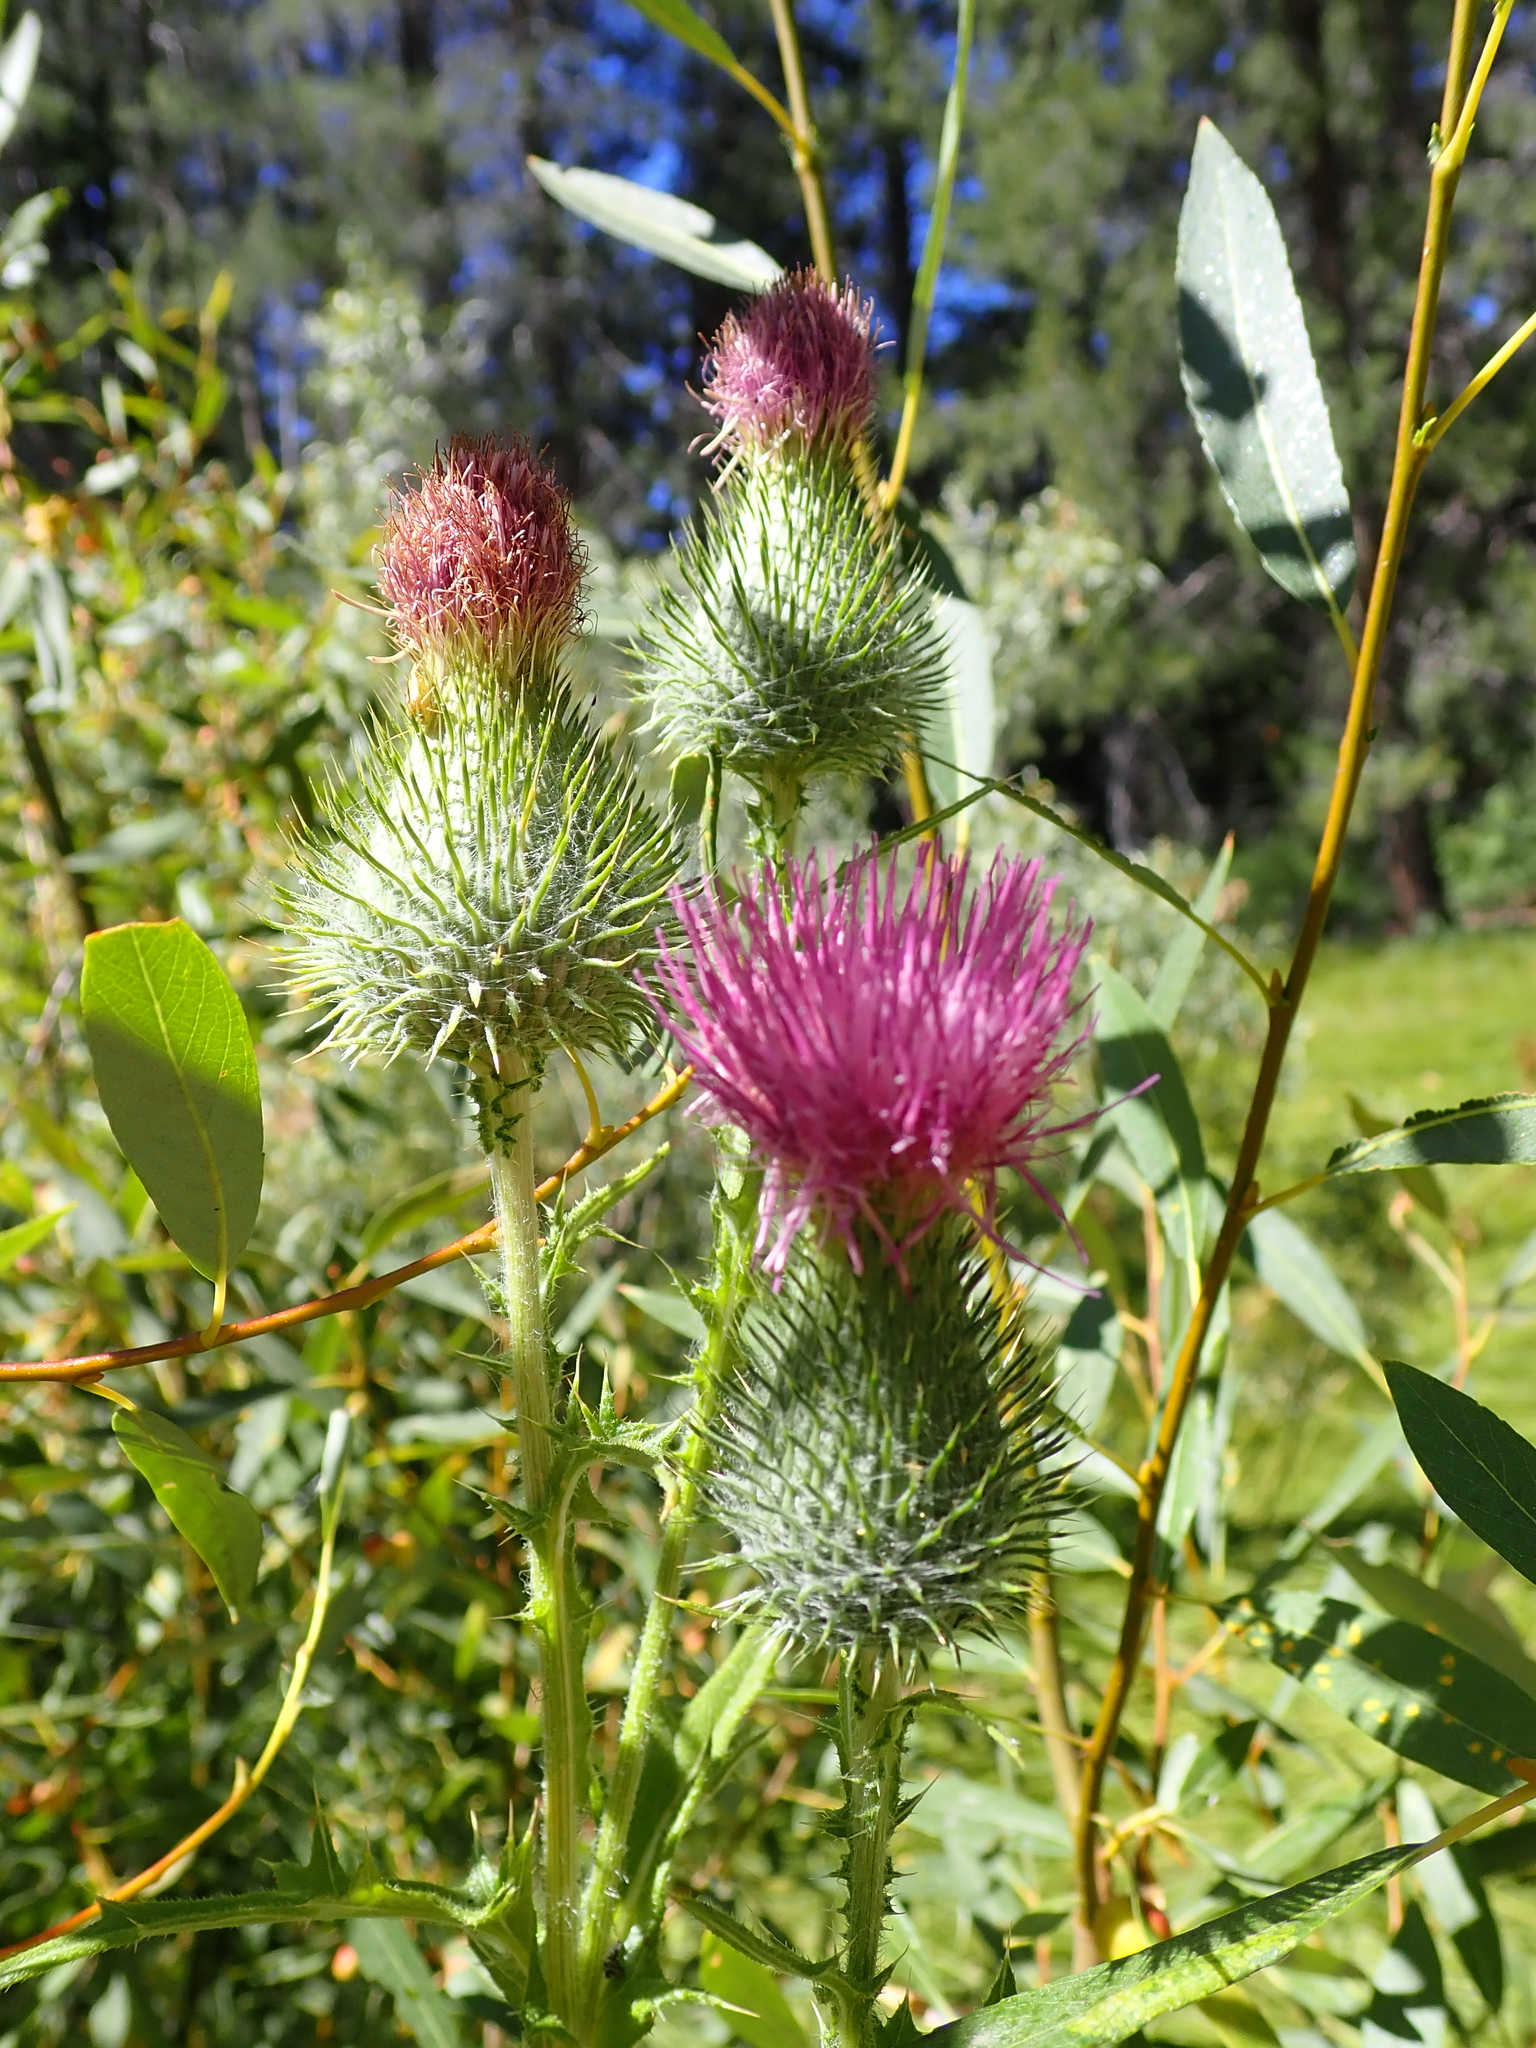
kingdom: Plantae
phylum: Tracheophyta
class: Magnoliopsida
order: Asterales
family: Asteraceae
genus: Cirsium
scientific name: Cirsium vulgare
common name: Bull thistle
